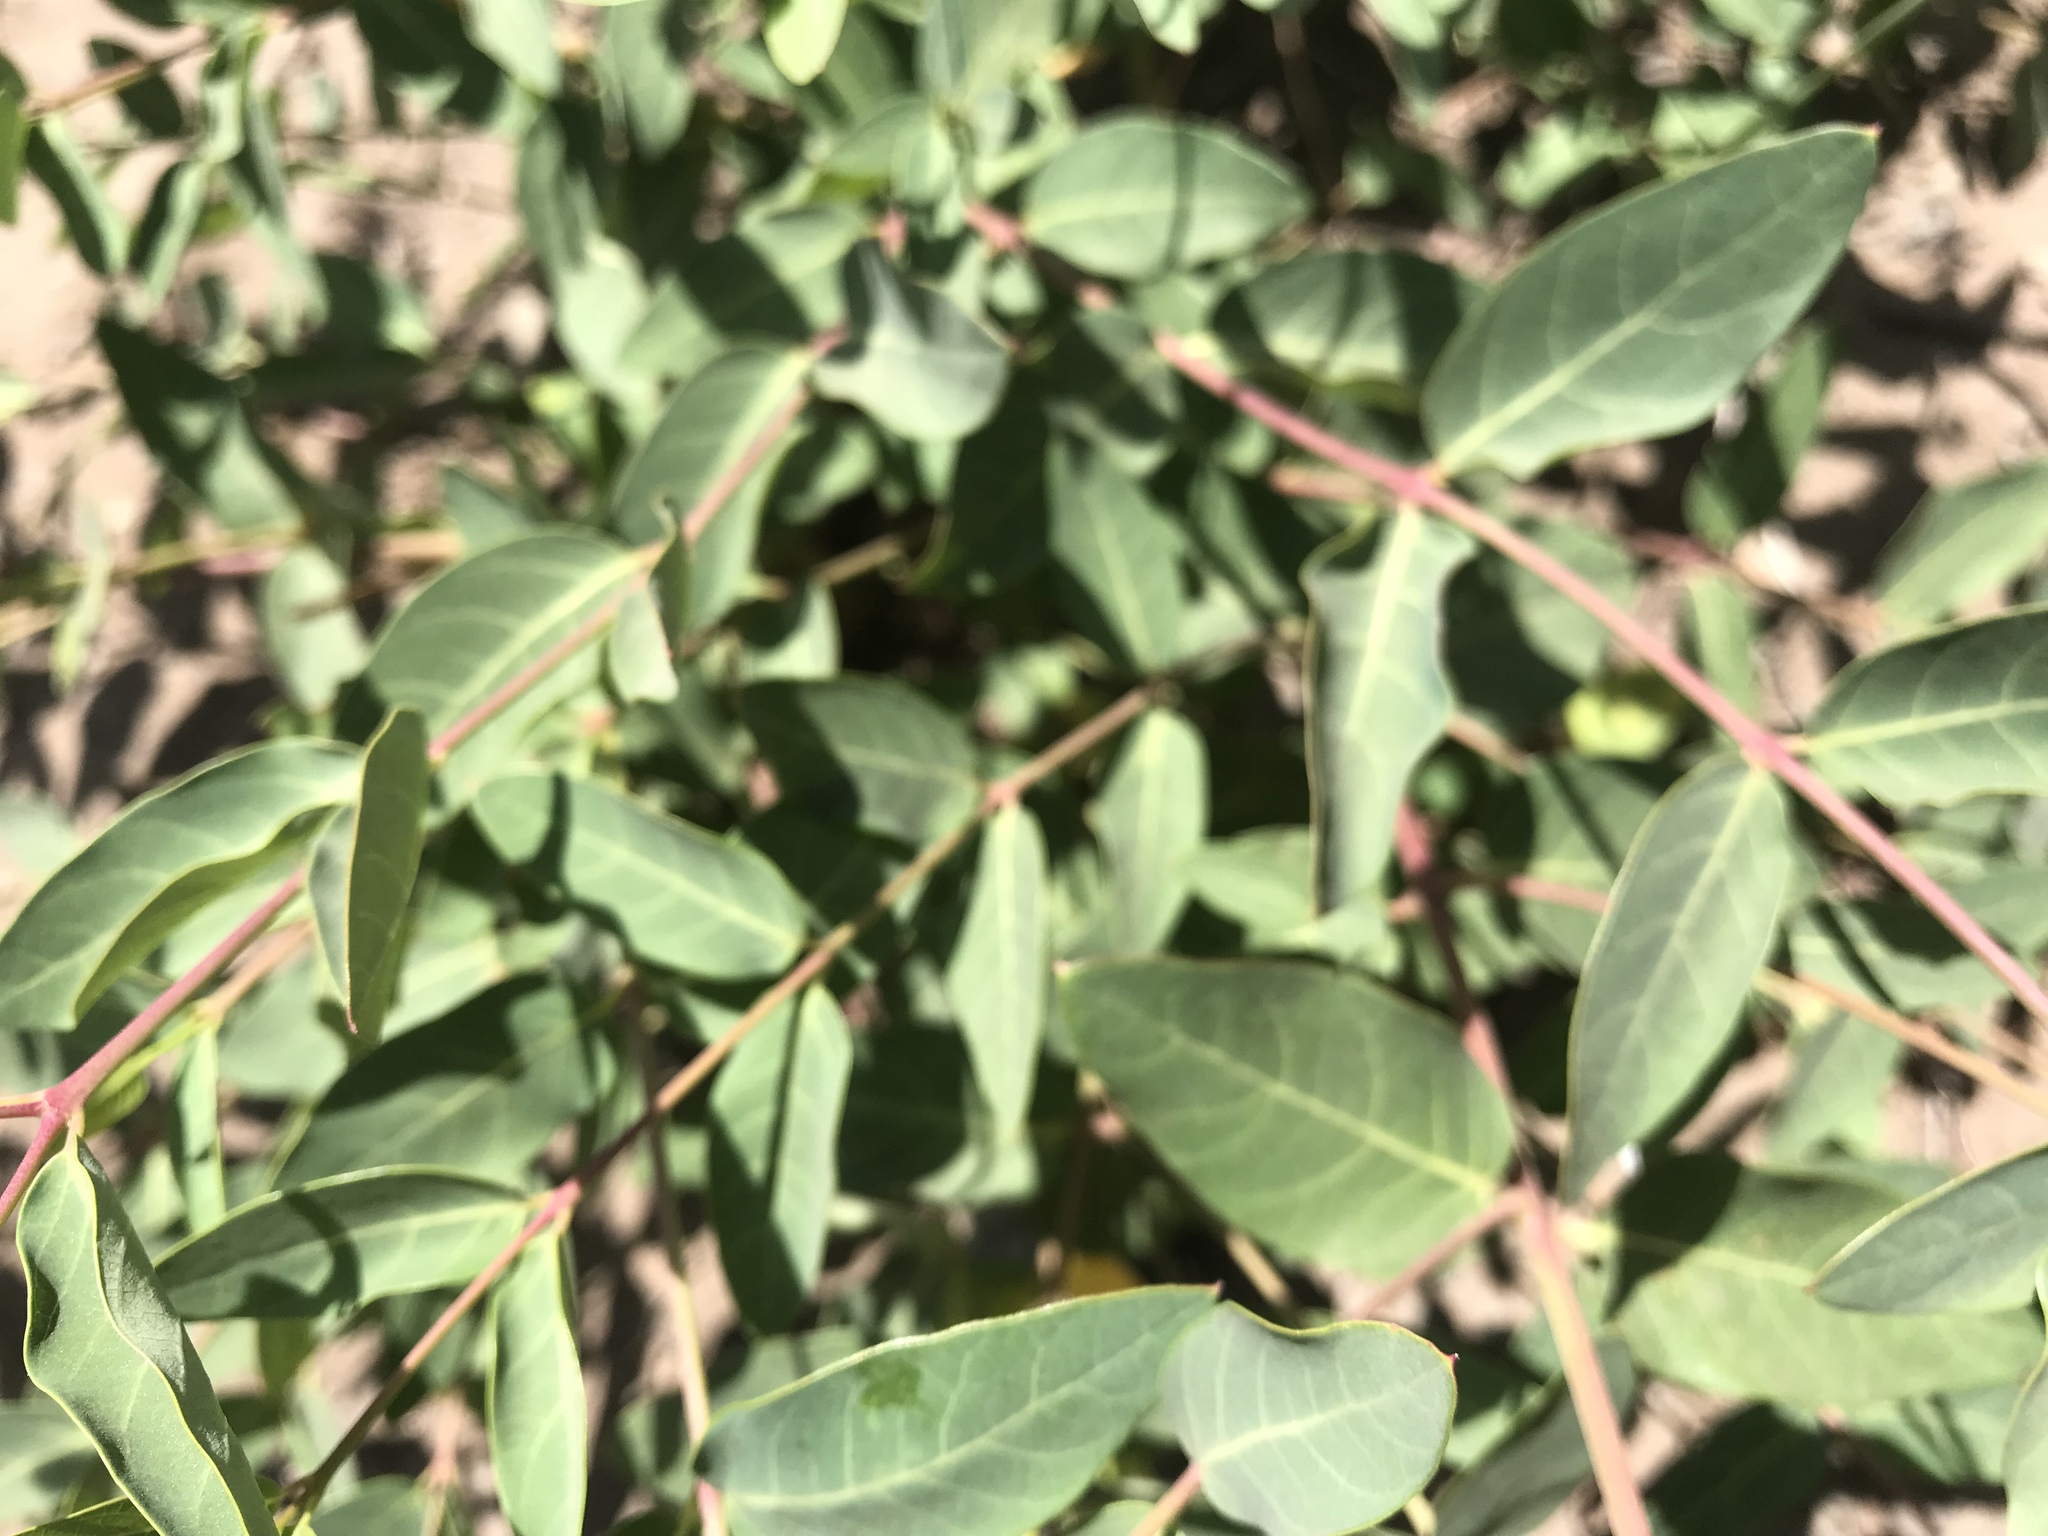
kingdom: Plantae
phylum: Tracheophyta
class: Magnoliopsida
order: Gentianales
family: Apocynaceae
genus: Apocynum
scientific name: Apocynum androsaemifolium
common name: Spreading dogbane
